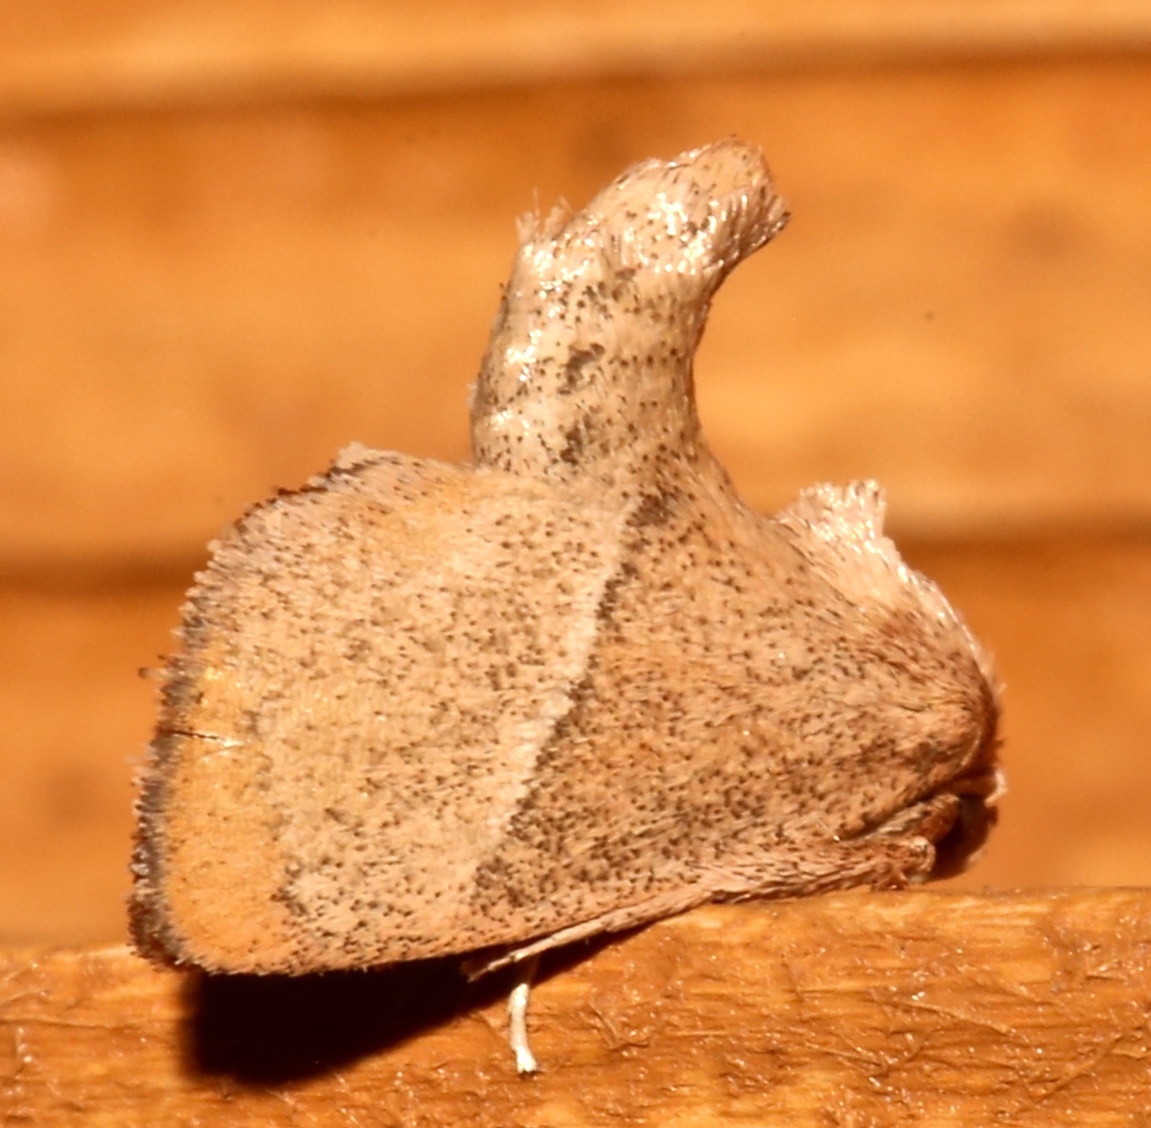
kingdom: Animalia
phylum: Arthropoda
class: Insecta
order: Lepidoptera
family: Limacodidae
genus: Apoda
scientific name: Apoda rectilinea
